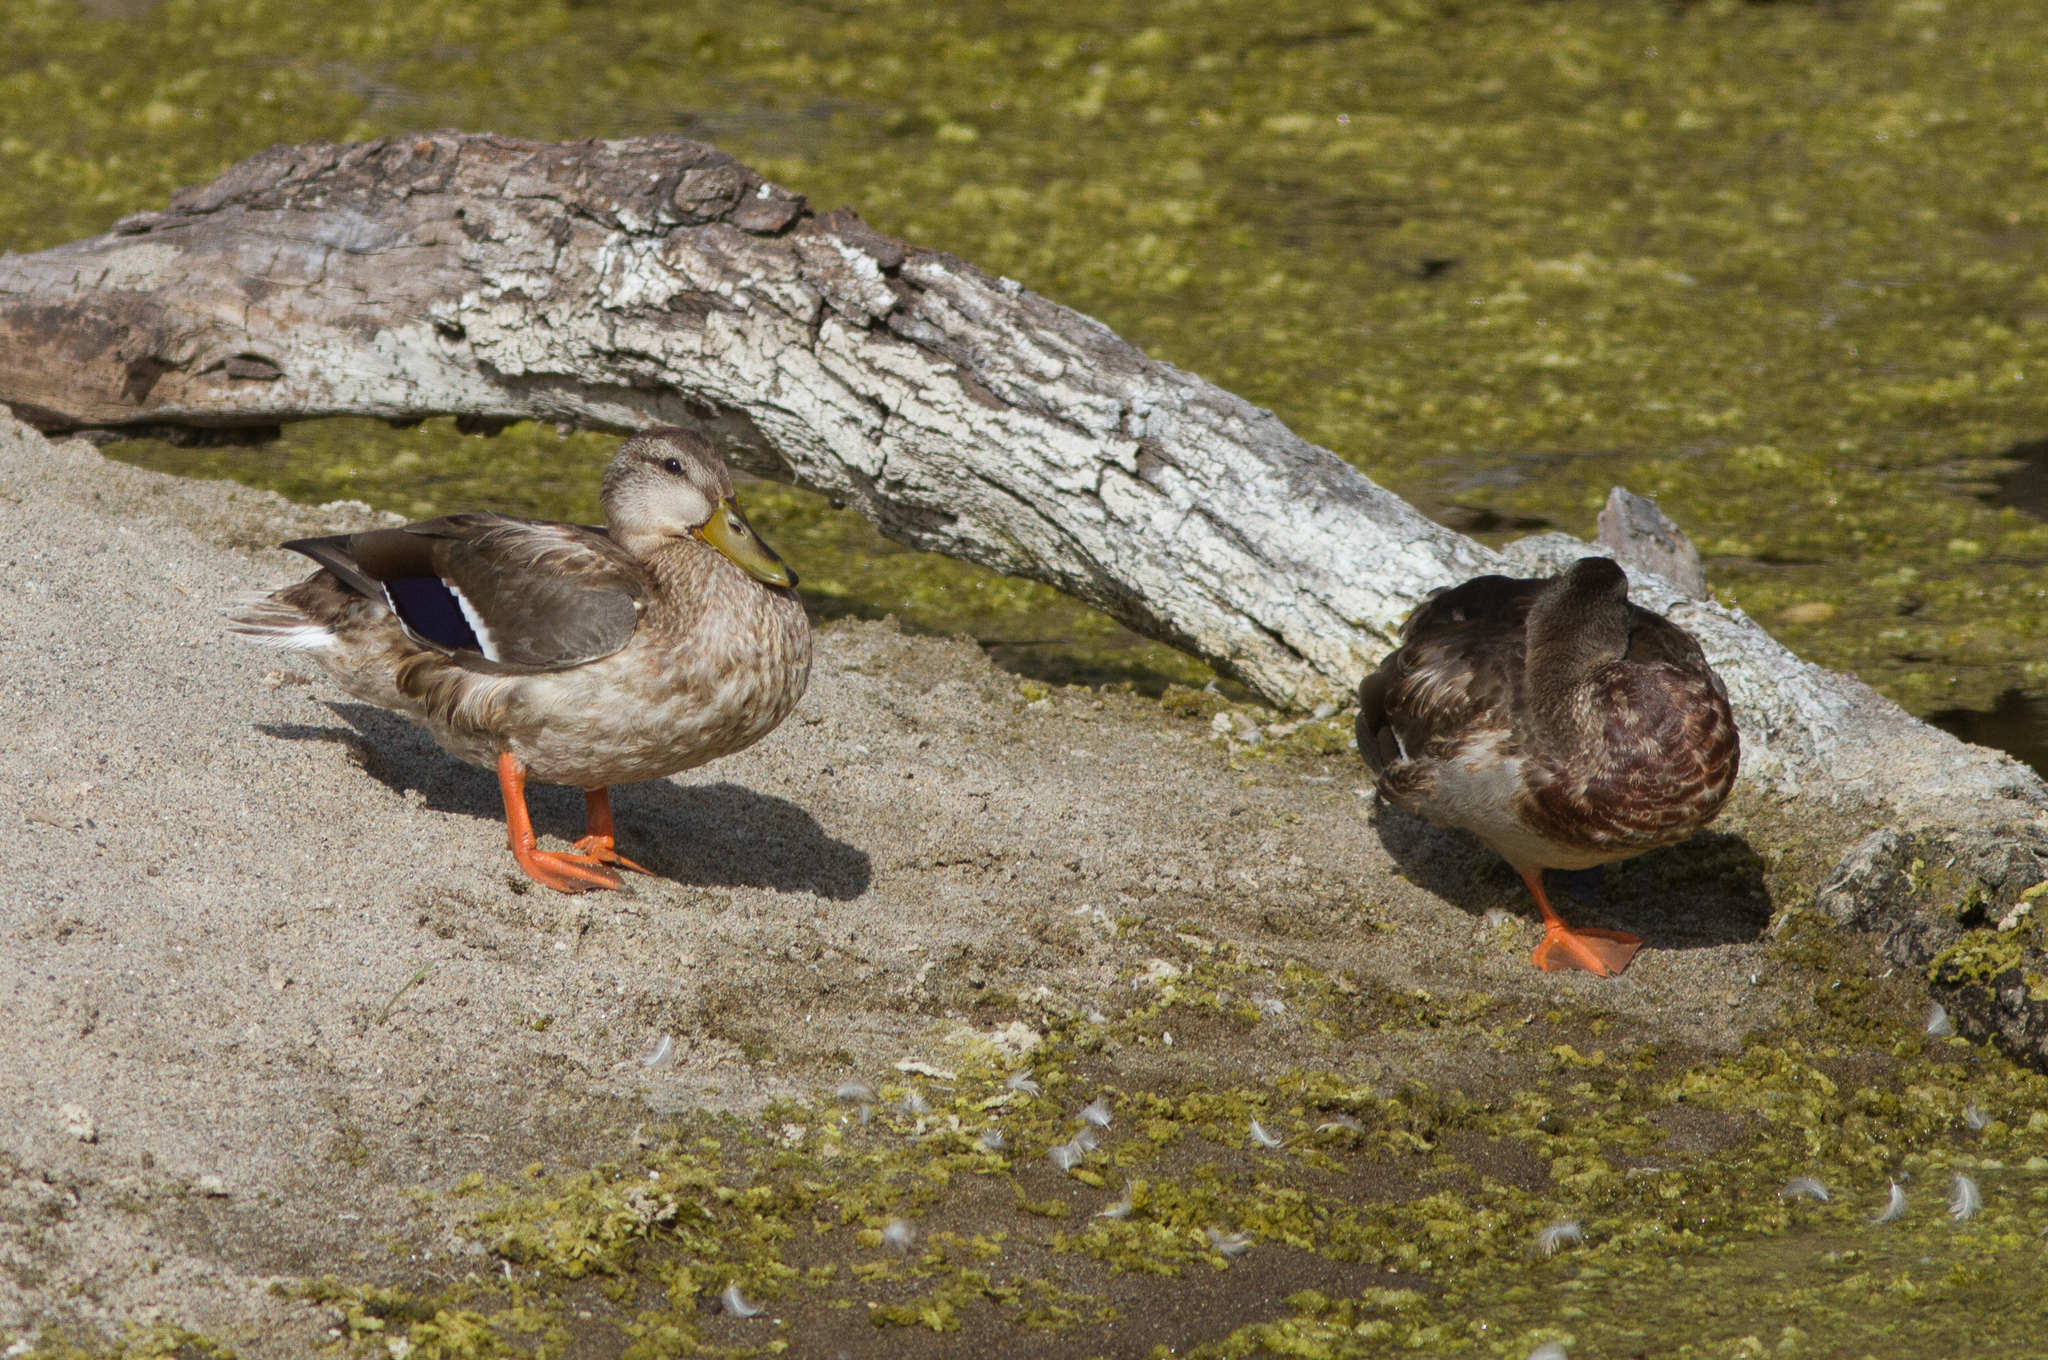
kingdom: Animalia
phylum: Chordata
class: Aves
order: Anseriformes
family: Anatidae
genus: Anas
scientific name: Anas platyrhynchos
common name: Mallard
